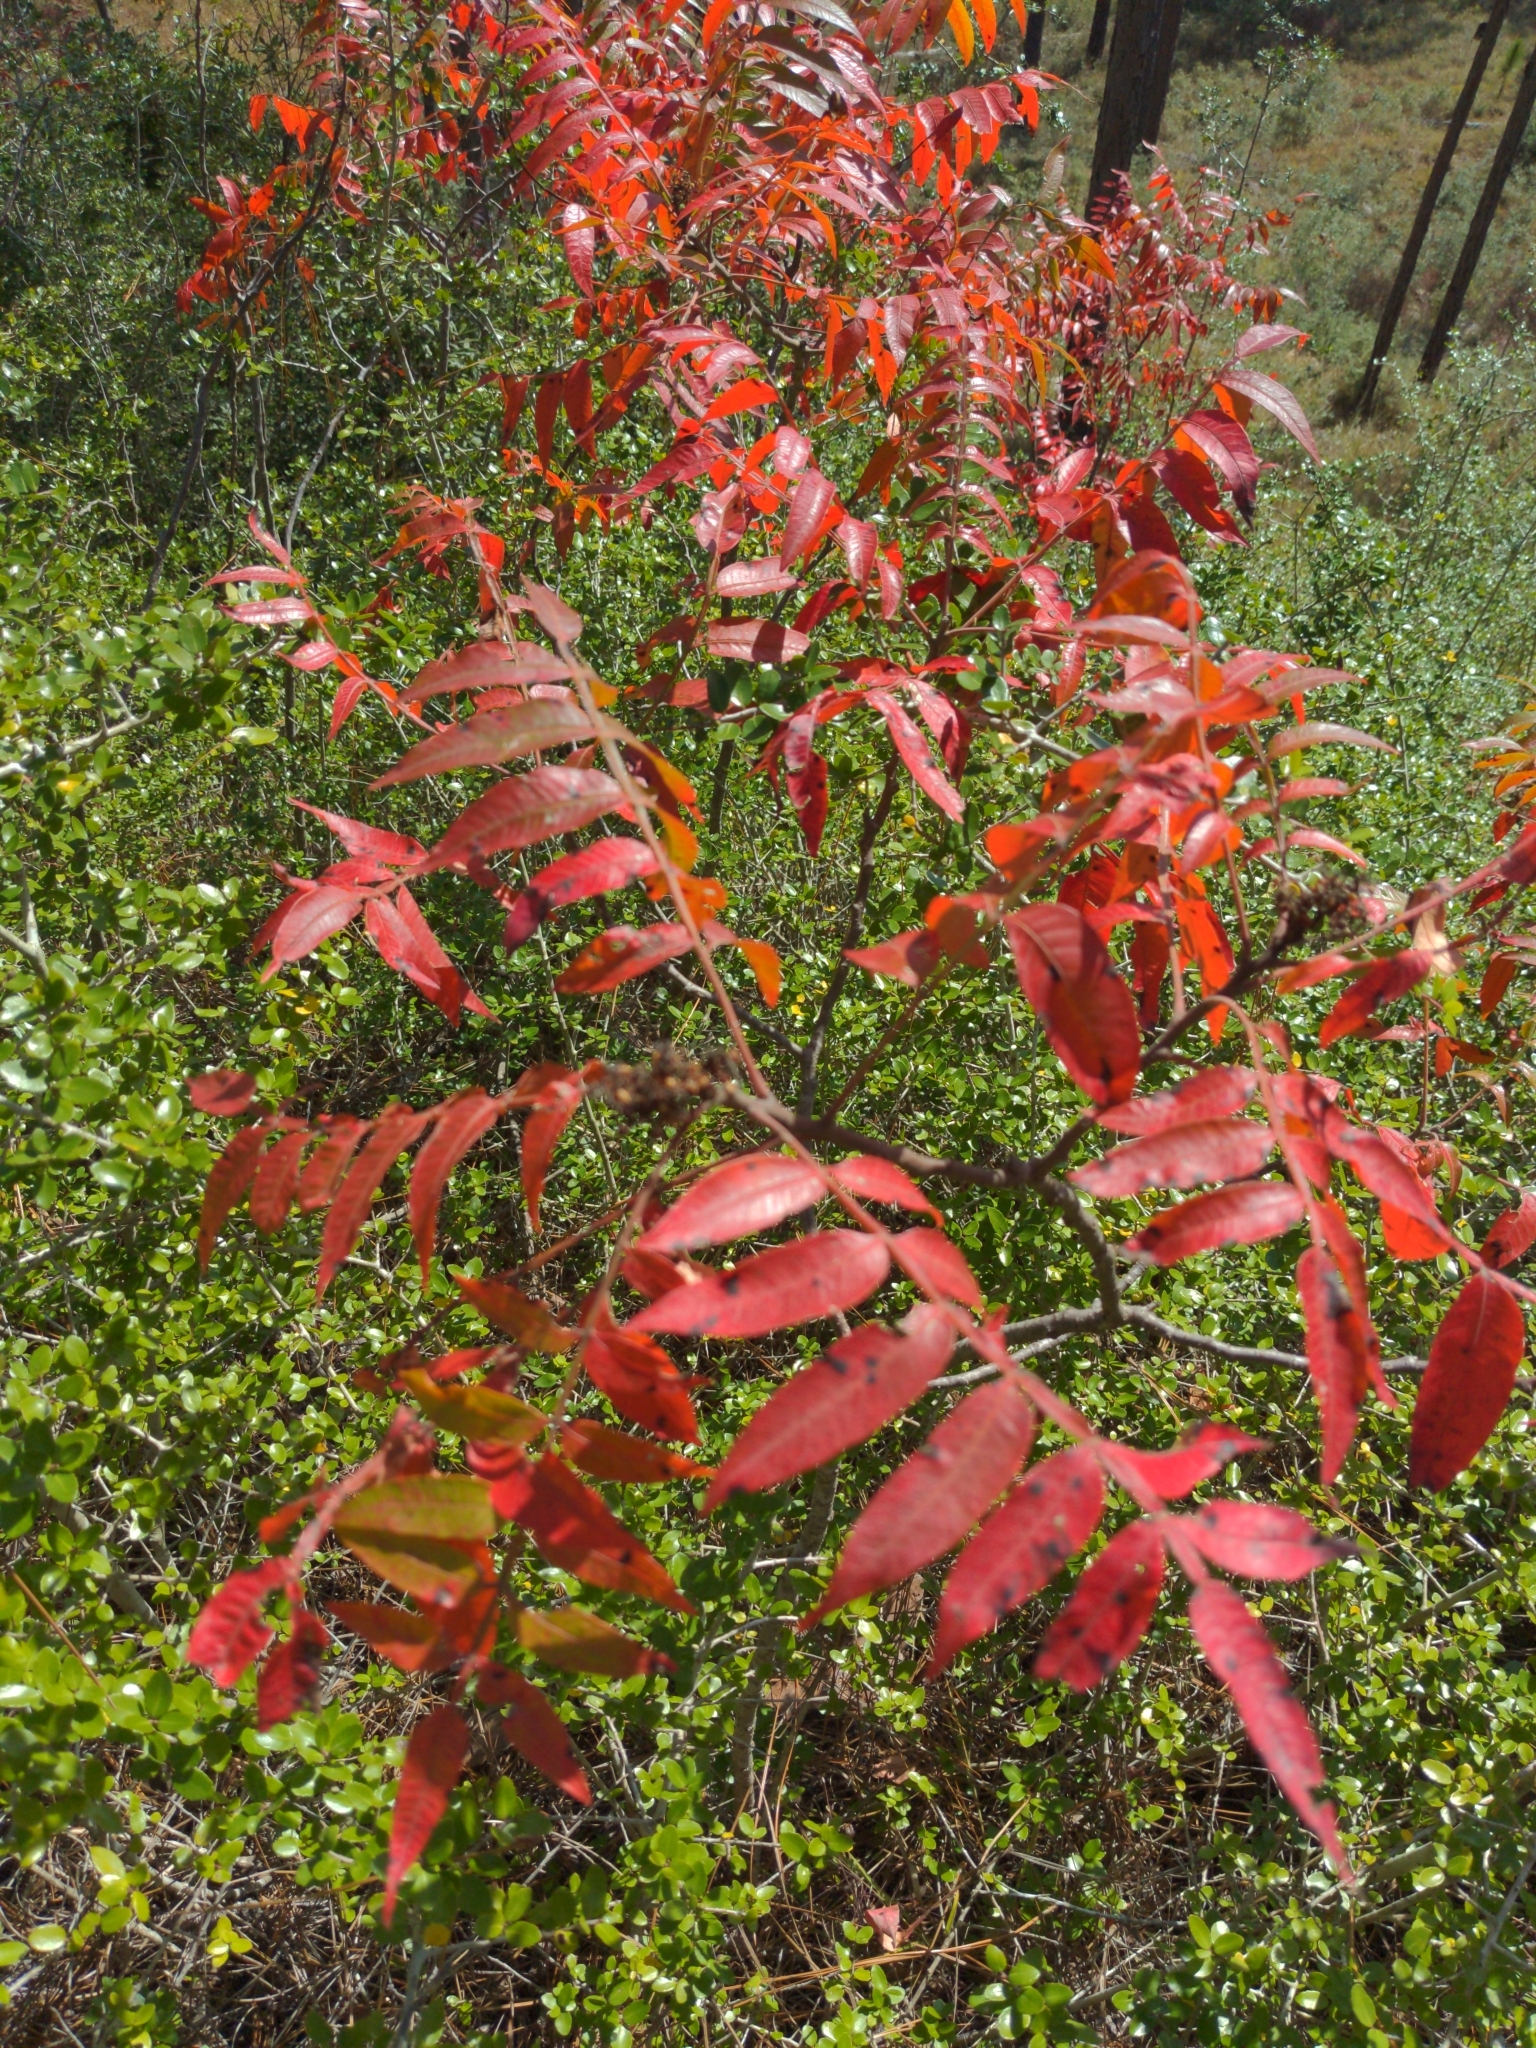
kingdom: Plantae
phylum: Tracheophyta
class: Magnoliopsida
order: Sapindales
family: Anacardiaceae
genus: Rhus
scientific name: Rhus copallina
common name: Shining sumac
